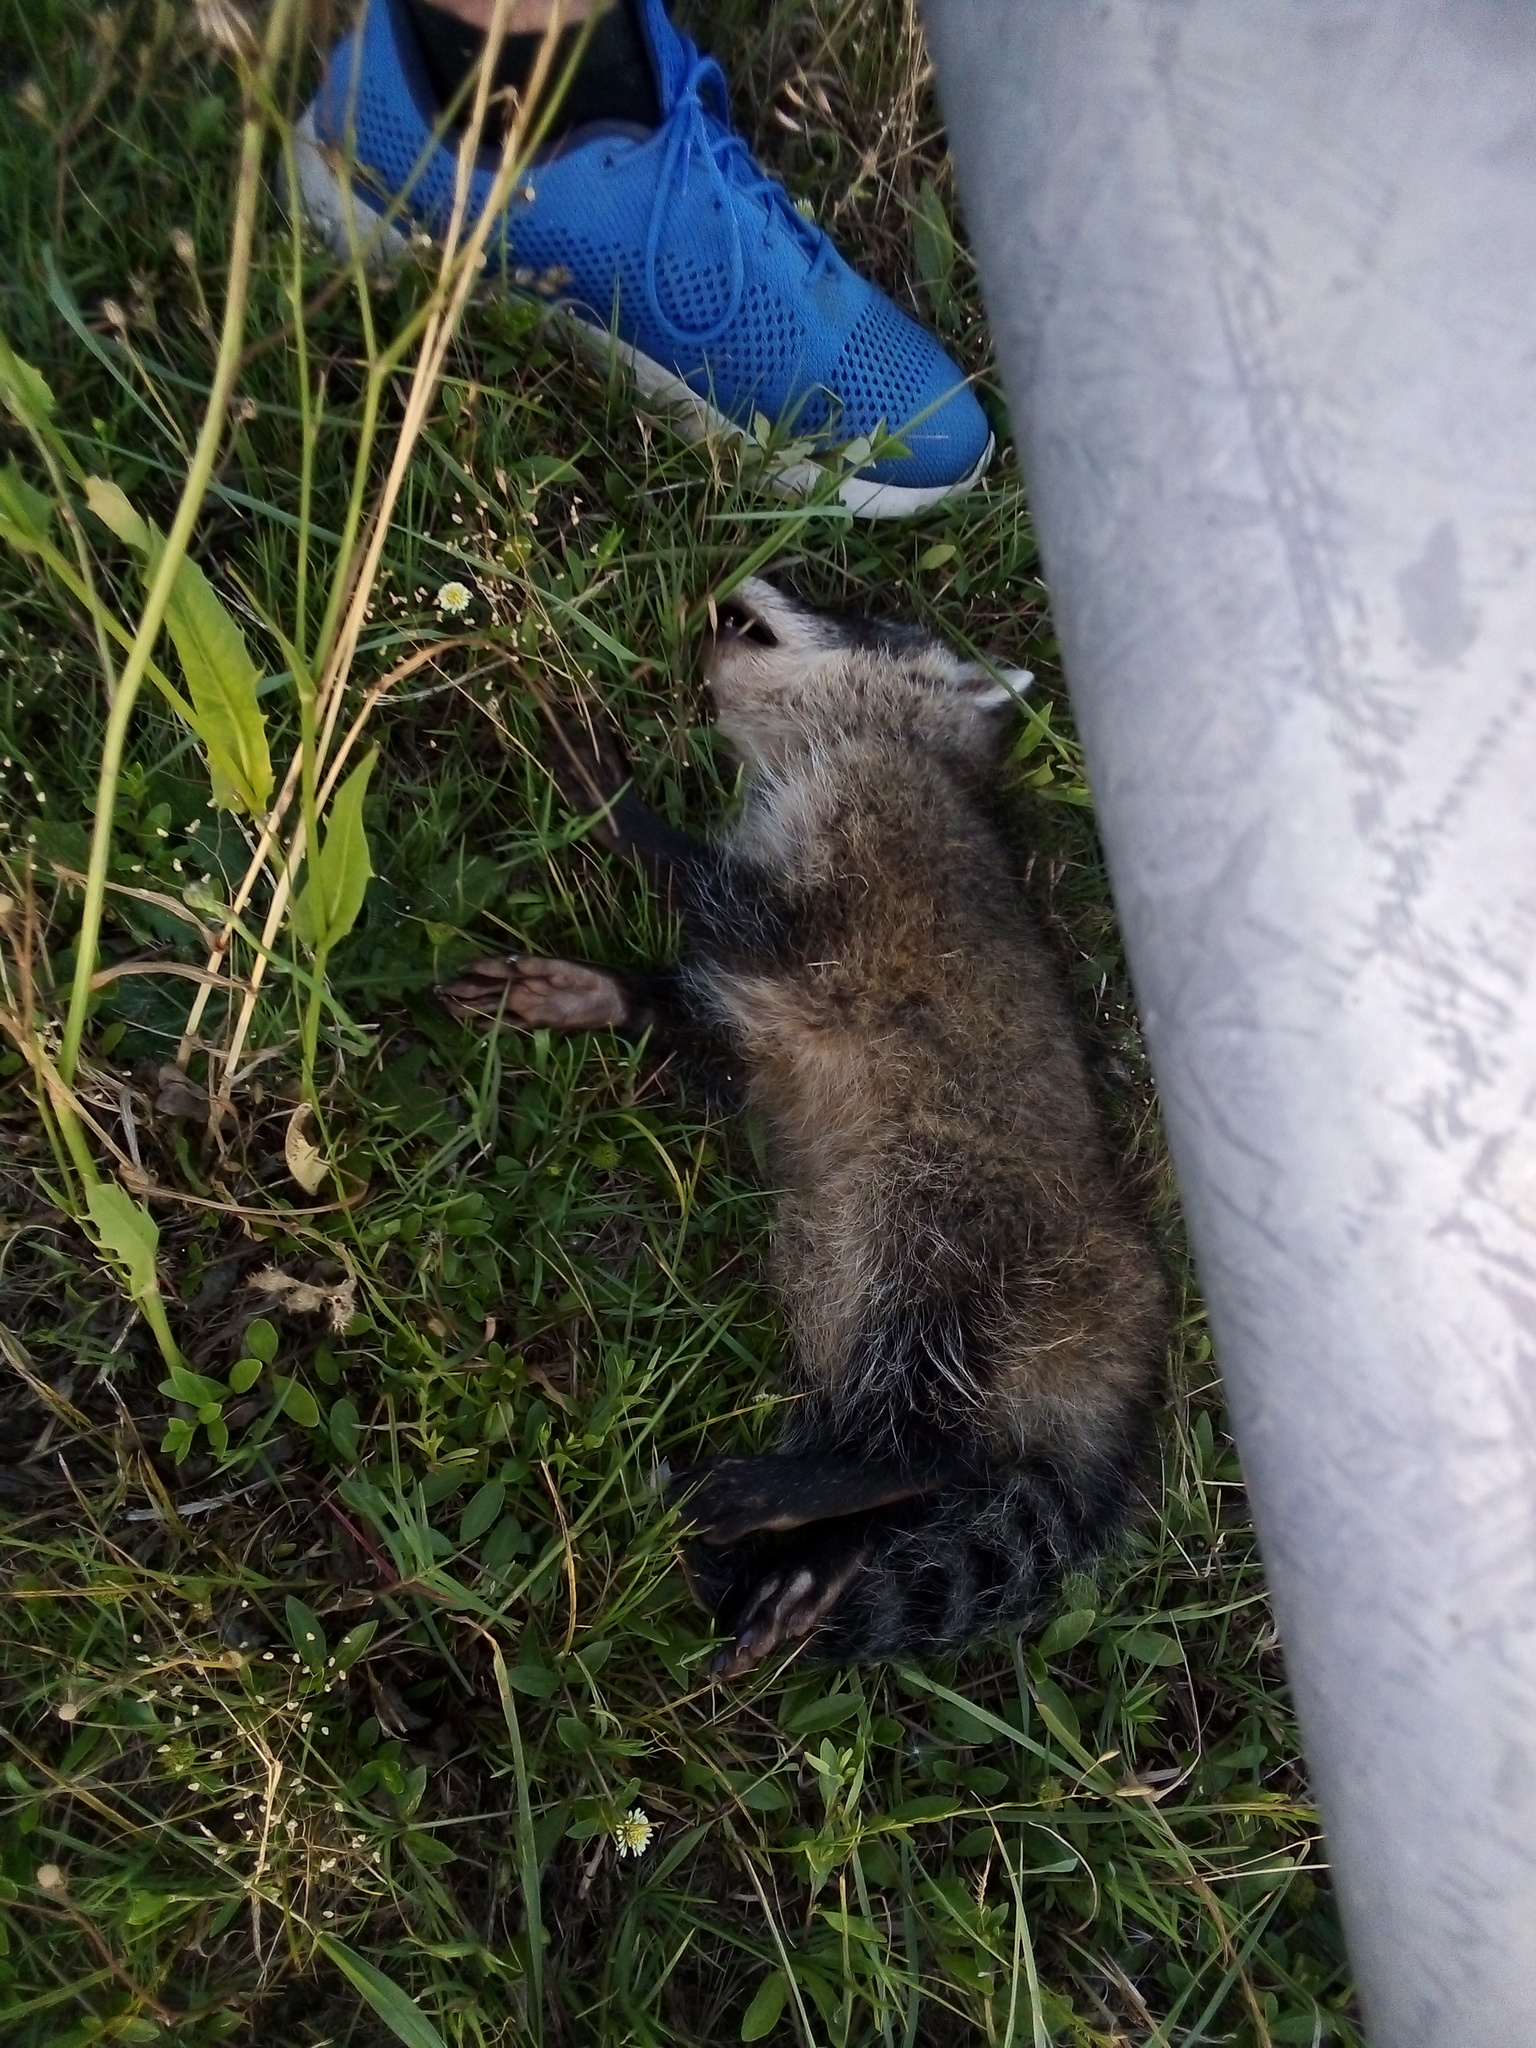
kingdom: Animalia
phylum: Chordata
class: Mammalia
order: Carnivora
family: Procyonidae
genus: Procyon
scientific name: Procyon cancrivorus
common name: Crab-eating raccoon
